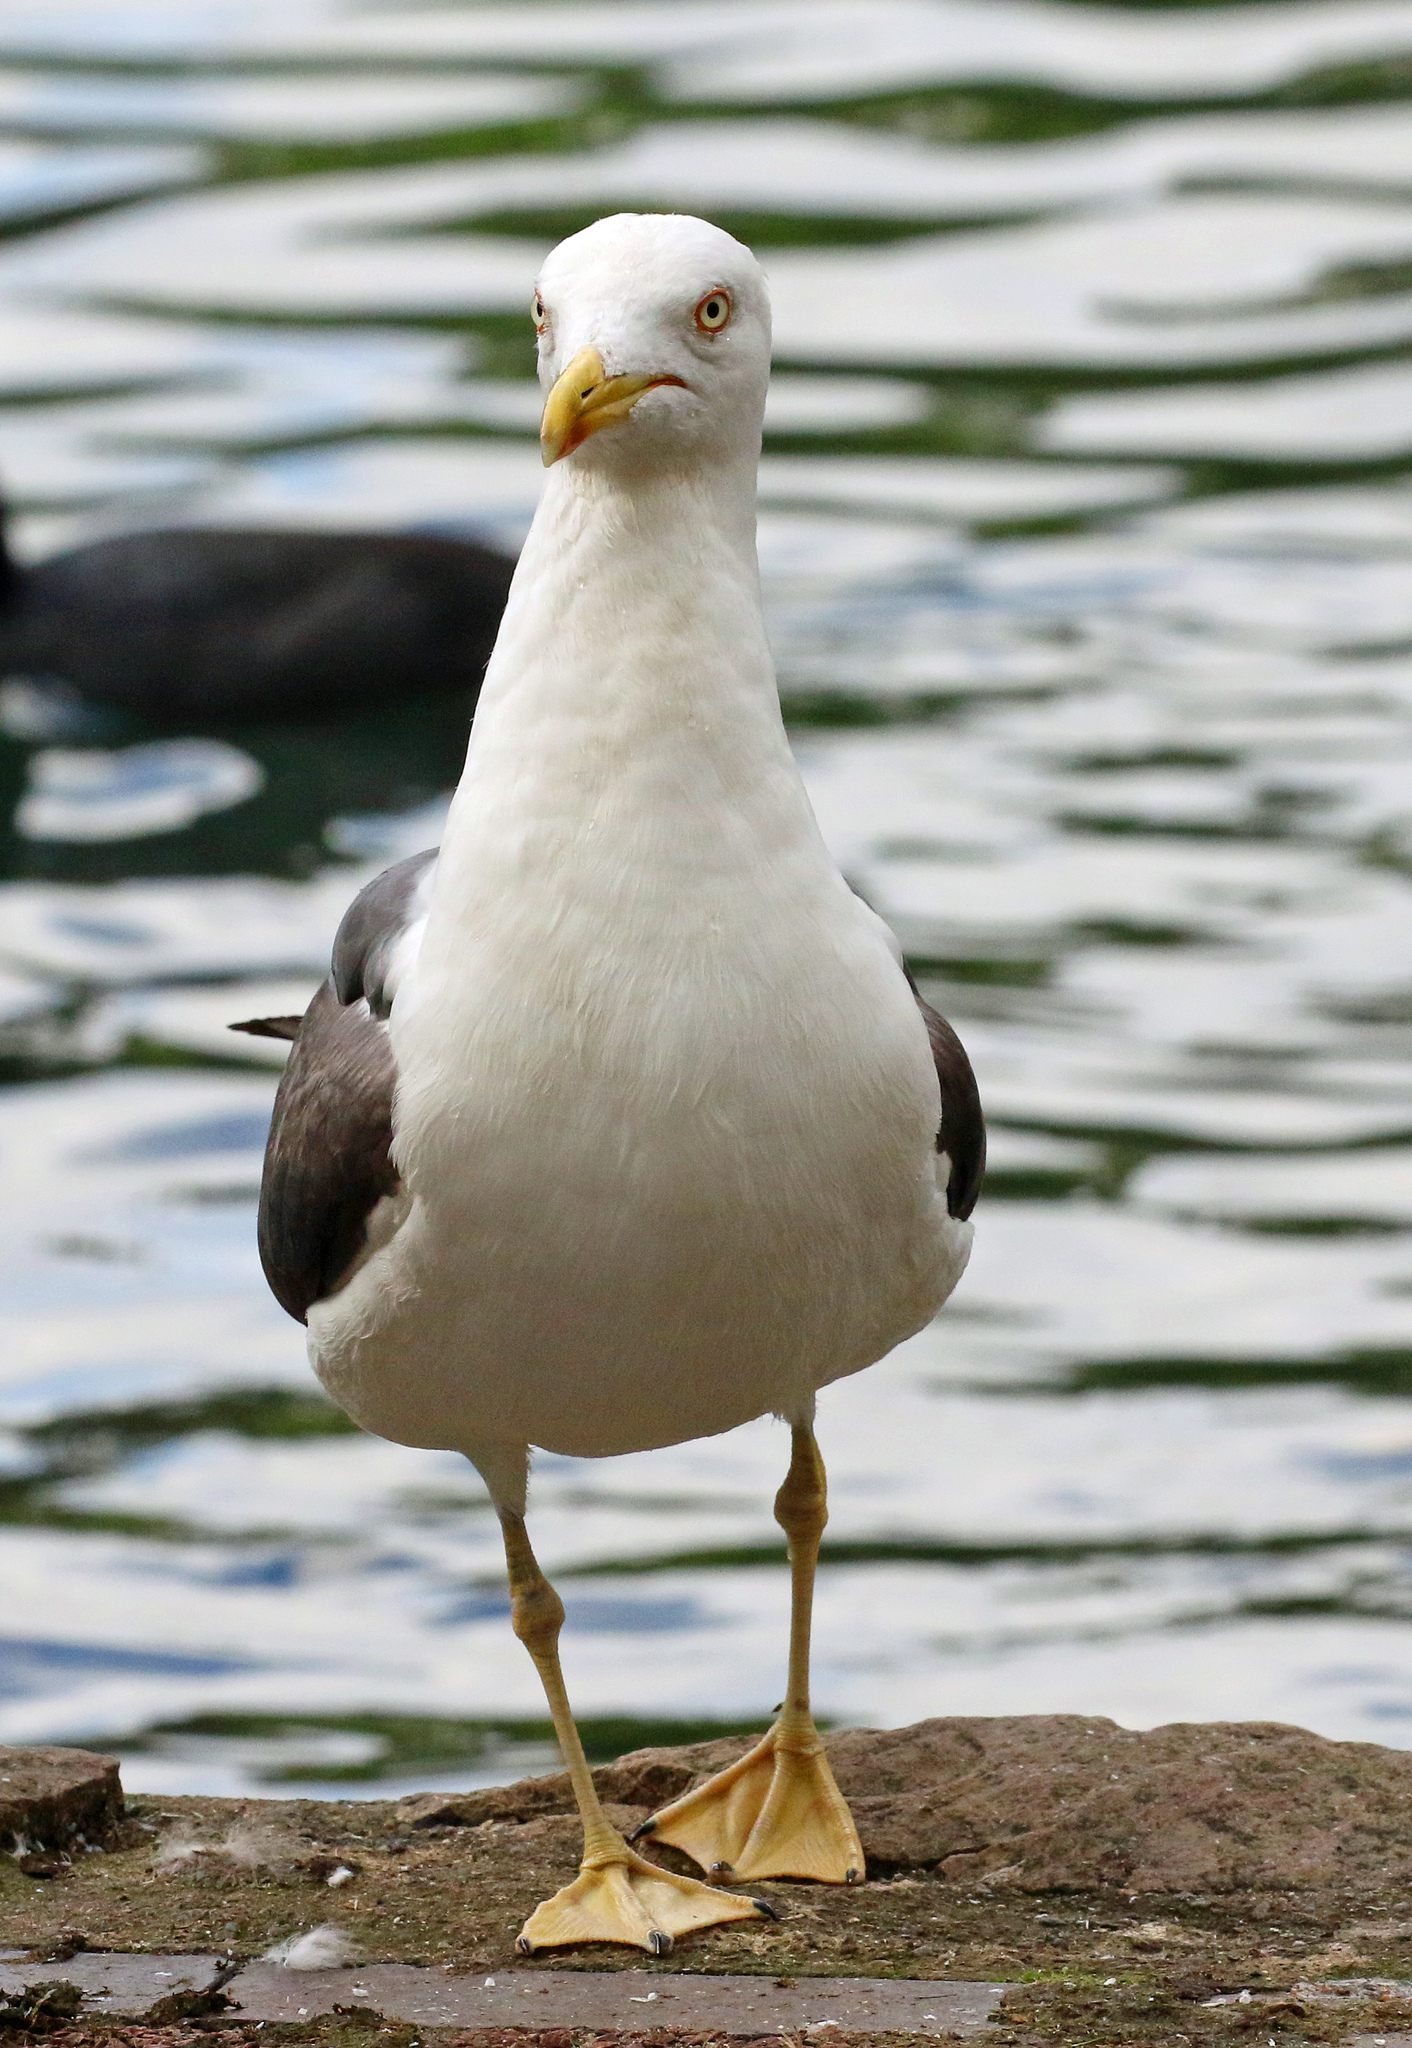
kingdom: Animalia
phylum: Chordata
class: Aves
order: Charadriiformes
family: Laridae
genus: Larus
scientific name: Larus fuscus
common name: Lesser black-backed gull
